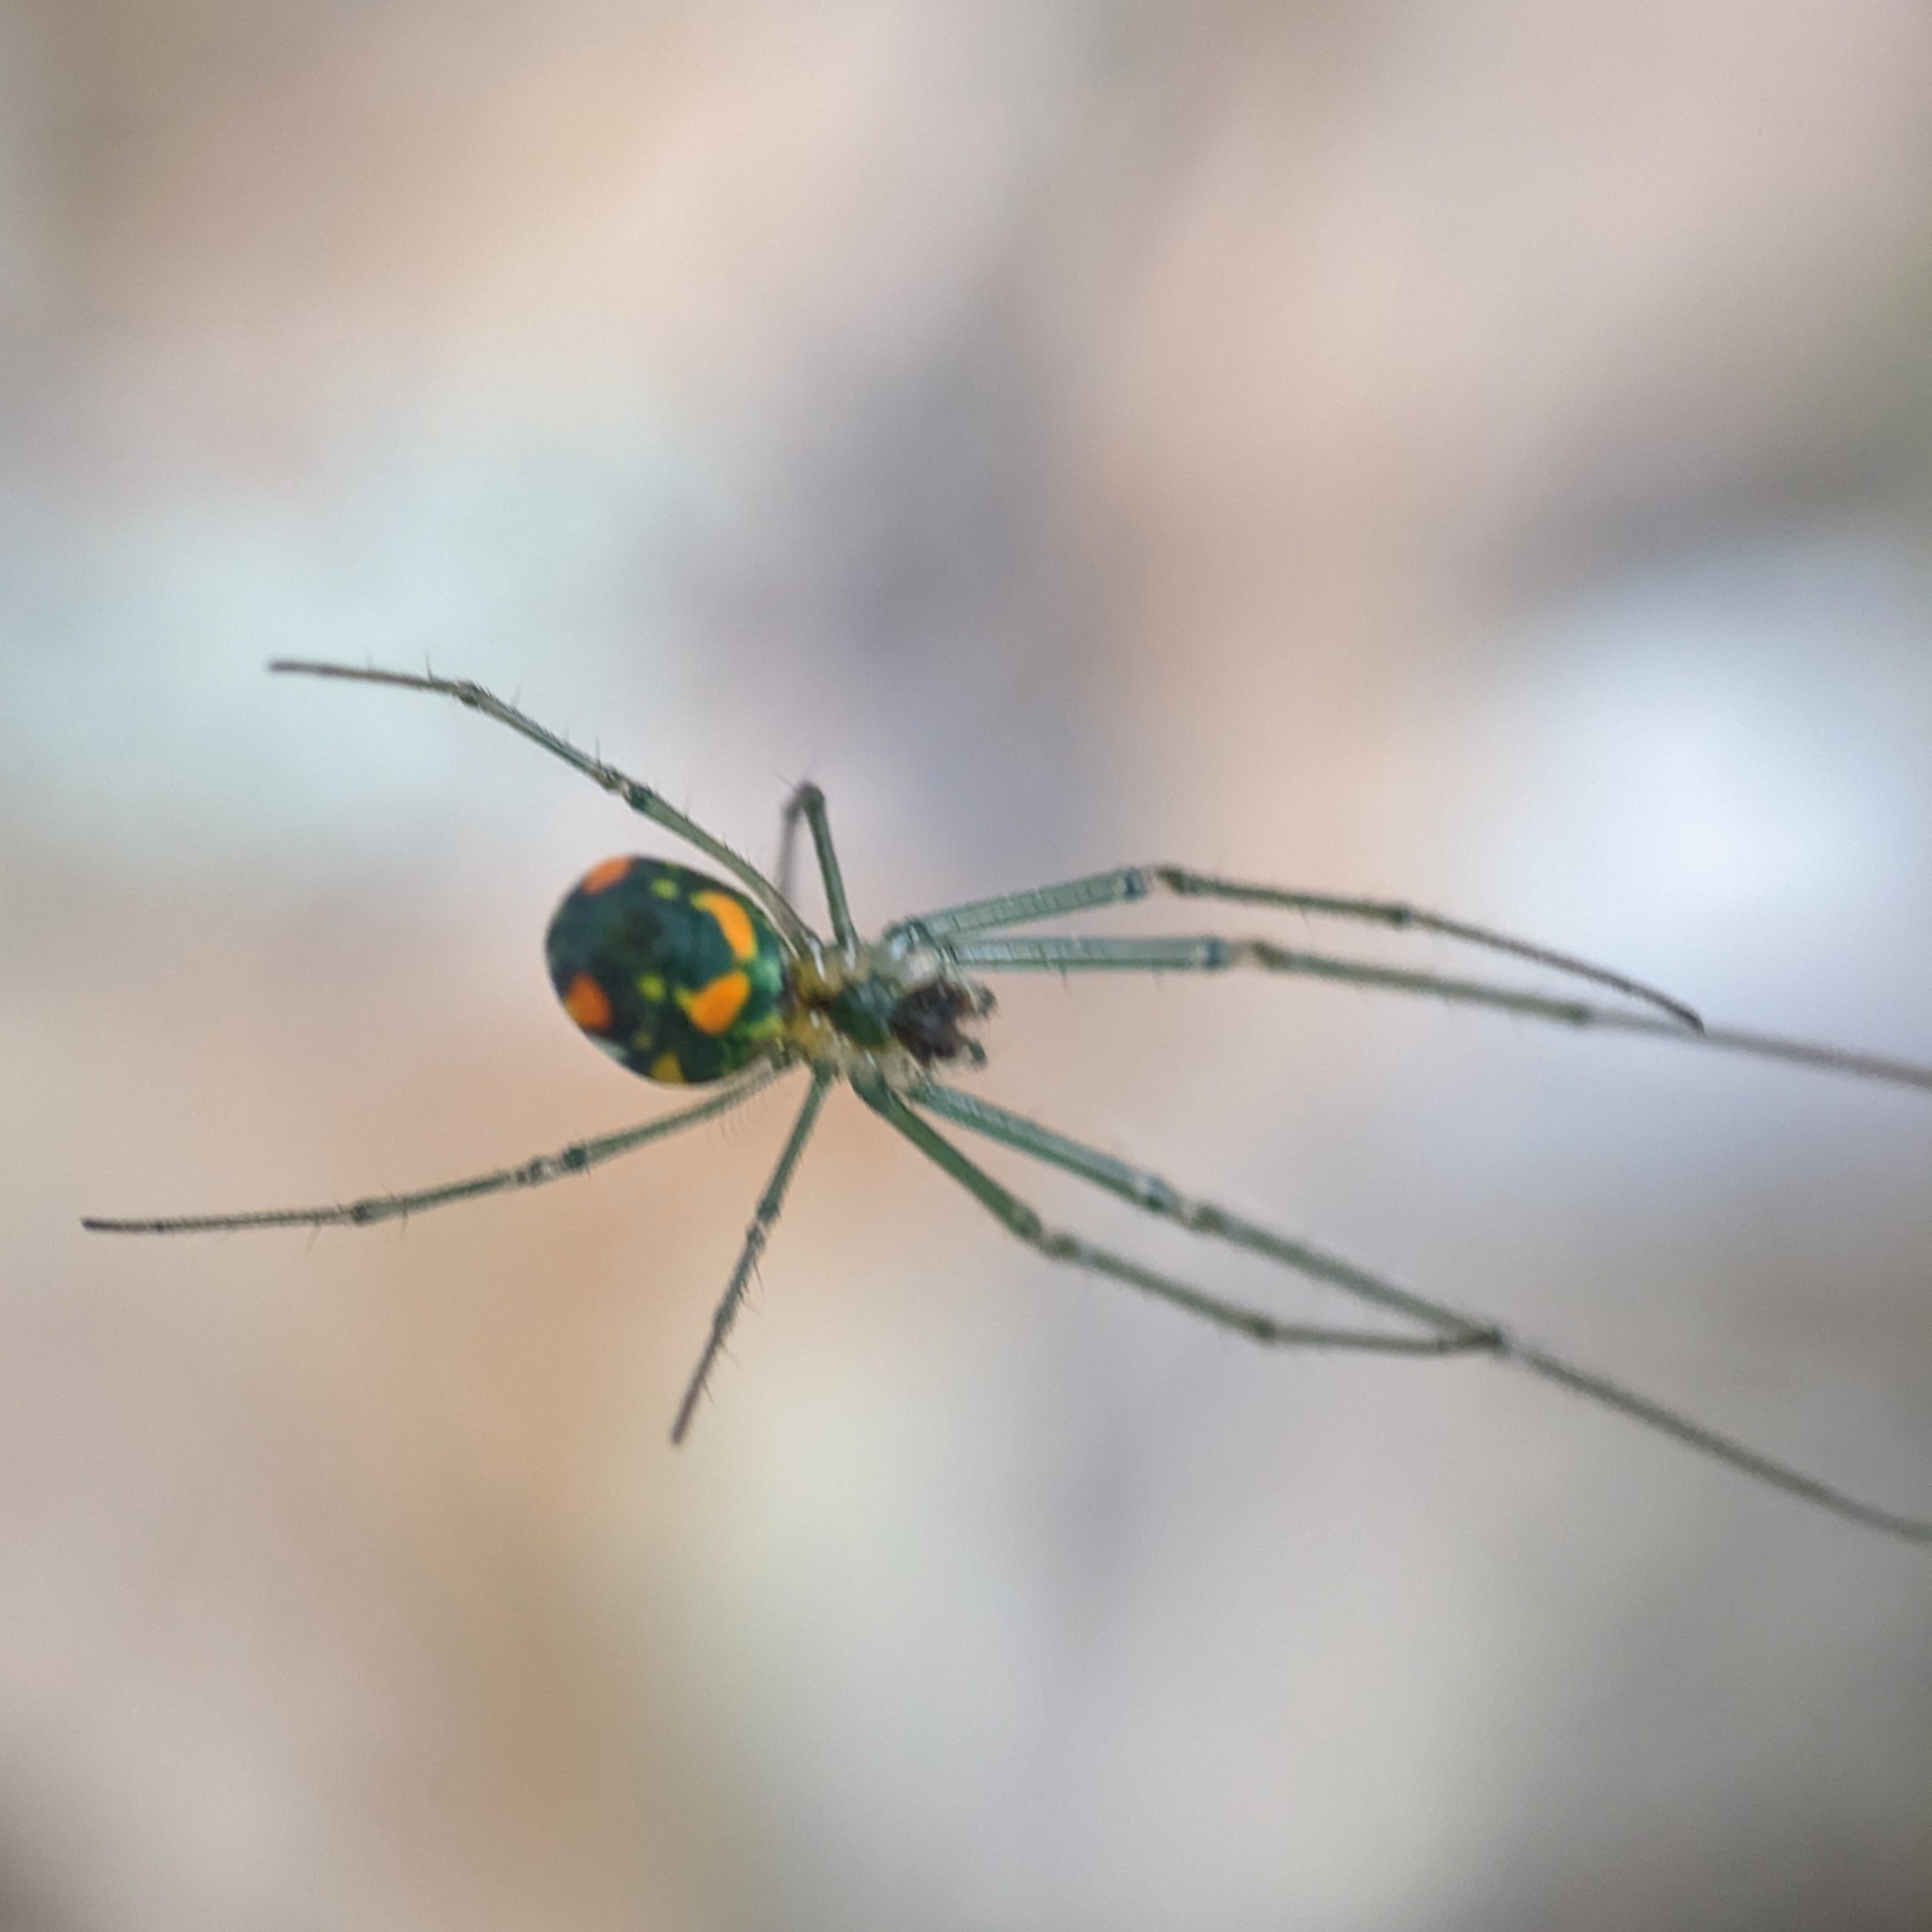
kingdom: Animalia
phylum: Arthropoda
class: Arachnida
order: Araneae
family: Tetragnathidae
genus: Leucauge
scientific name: Leucauge argyrobapta
